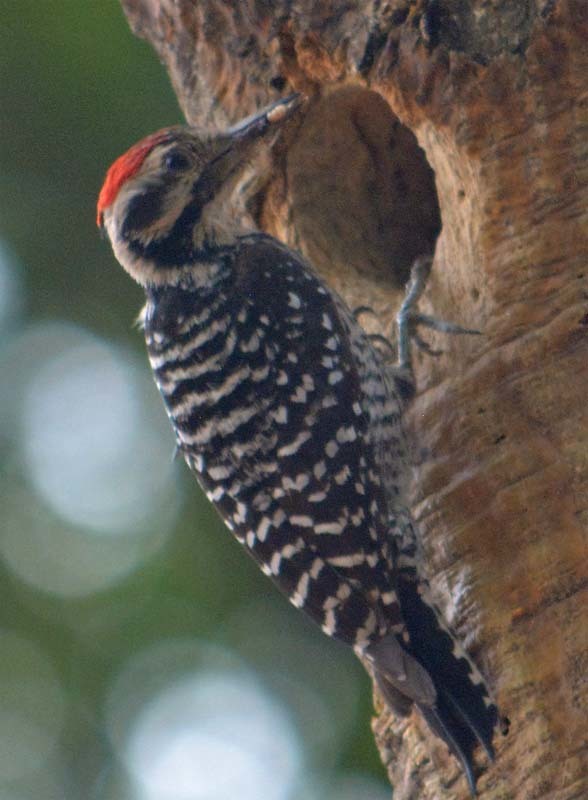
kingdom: Animalia
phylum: Chordata
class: Aves
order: Piciformes
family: Picidae
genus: Dryobates
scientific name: Dryobates scalaris
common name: Ladder-backed woodpecker
